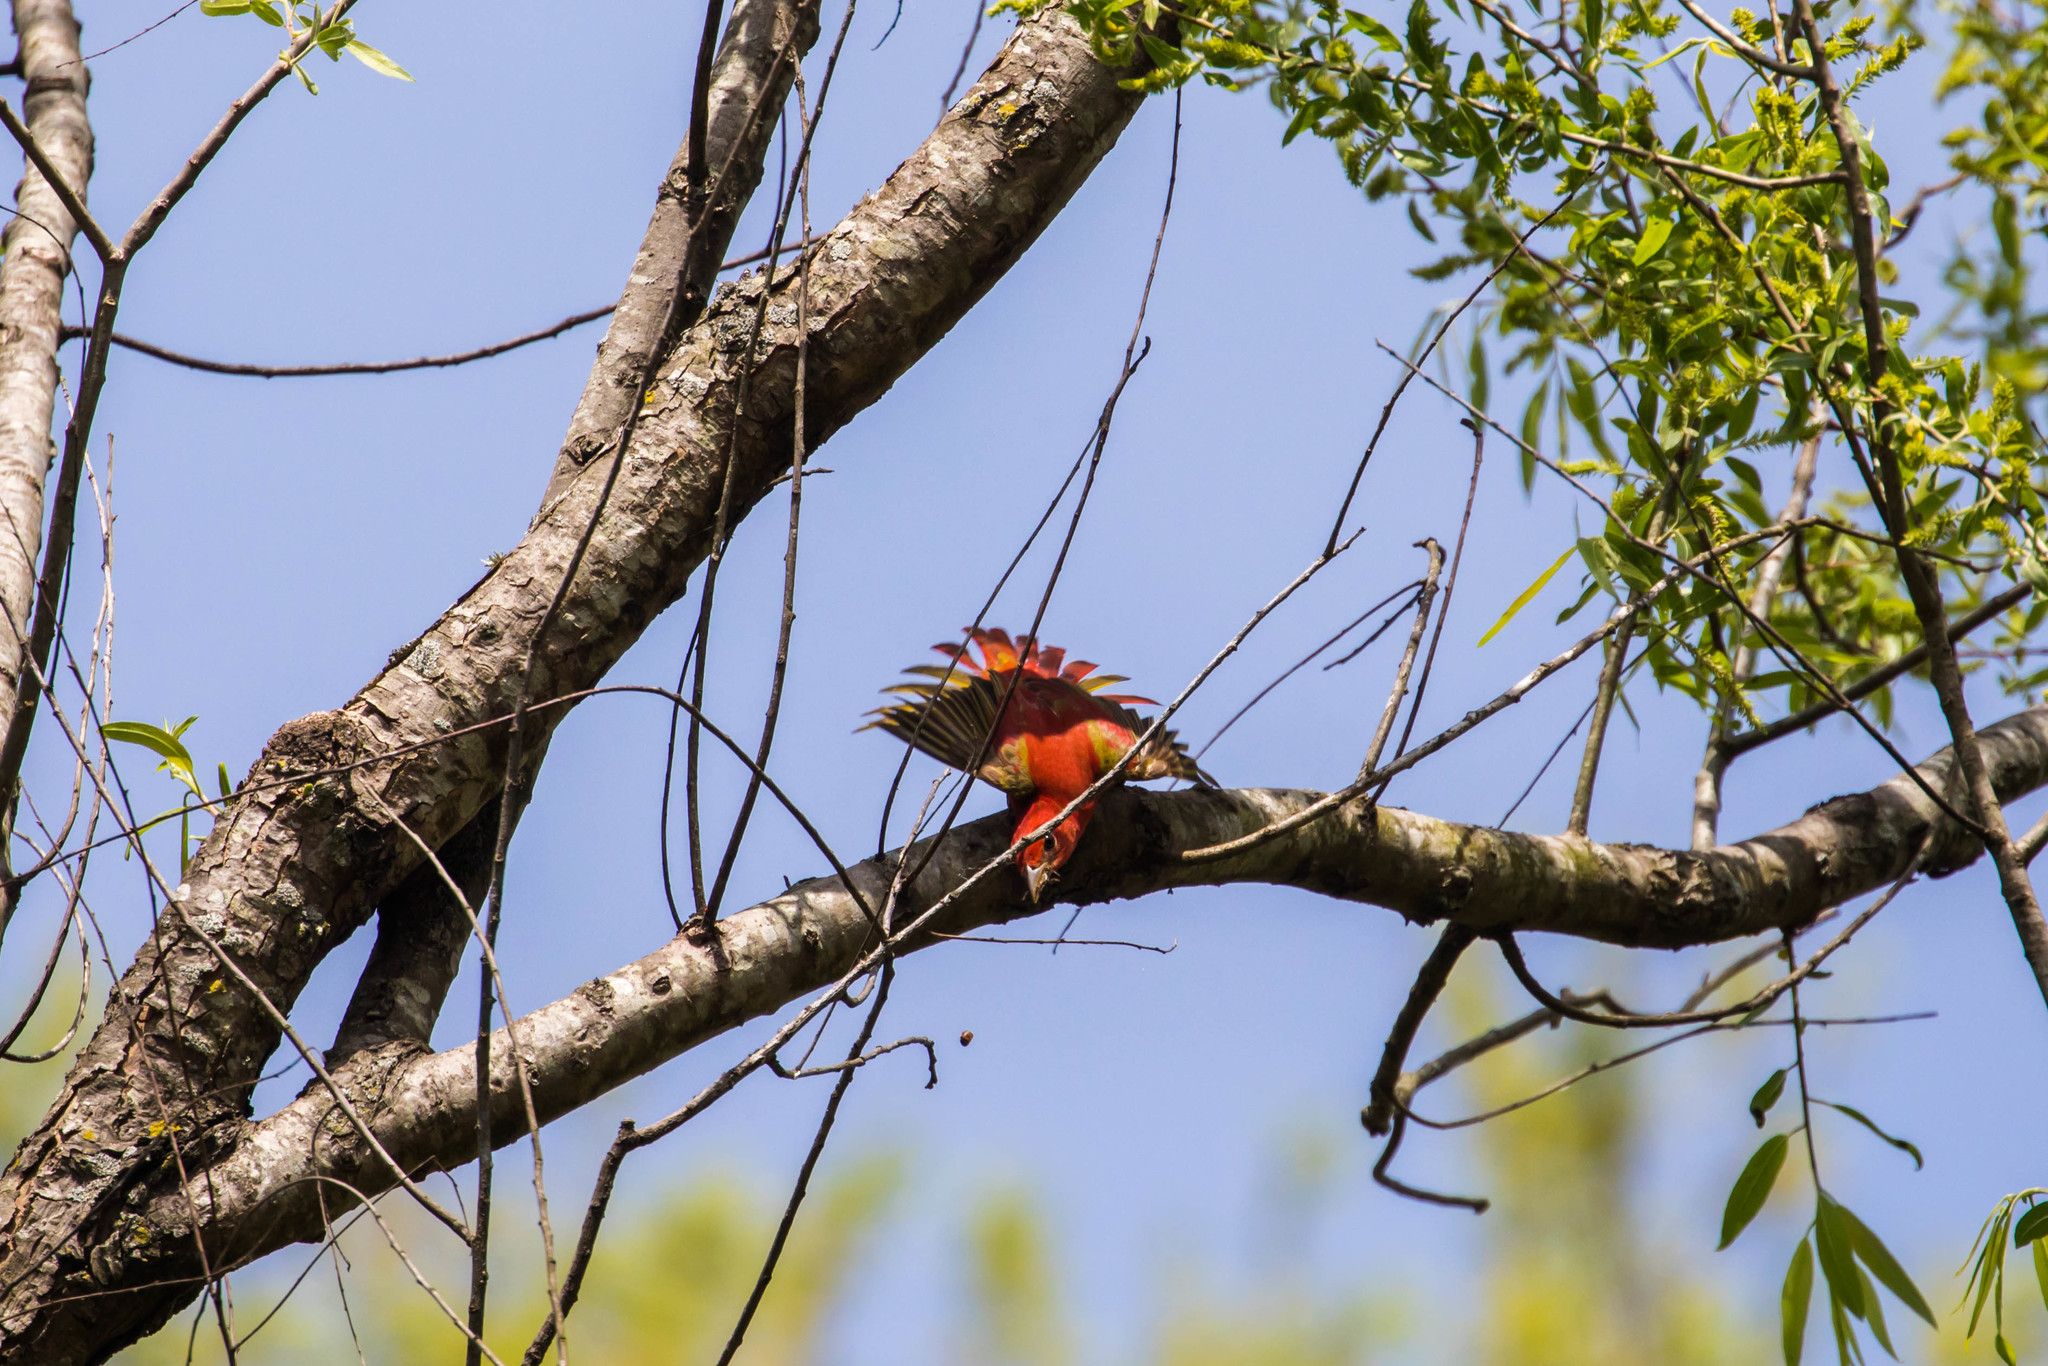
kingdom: Animalia
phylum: Chordata
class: Aves
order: Passeriformes
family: Cardinalidae
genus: Piranga
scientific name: Piranga rubra
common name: Summer tanager
